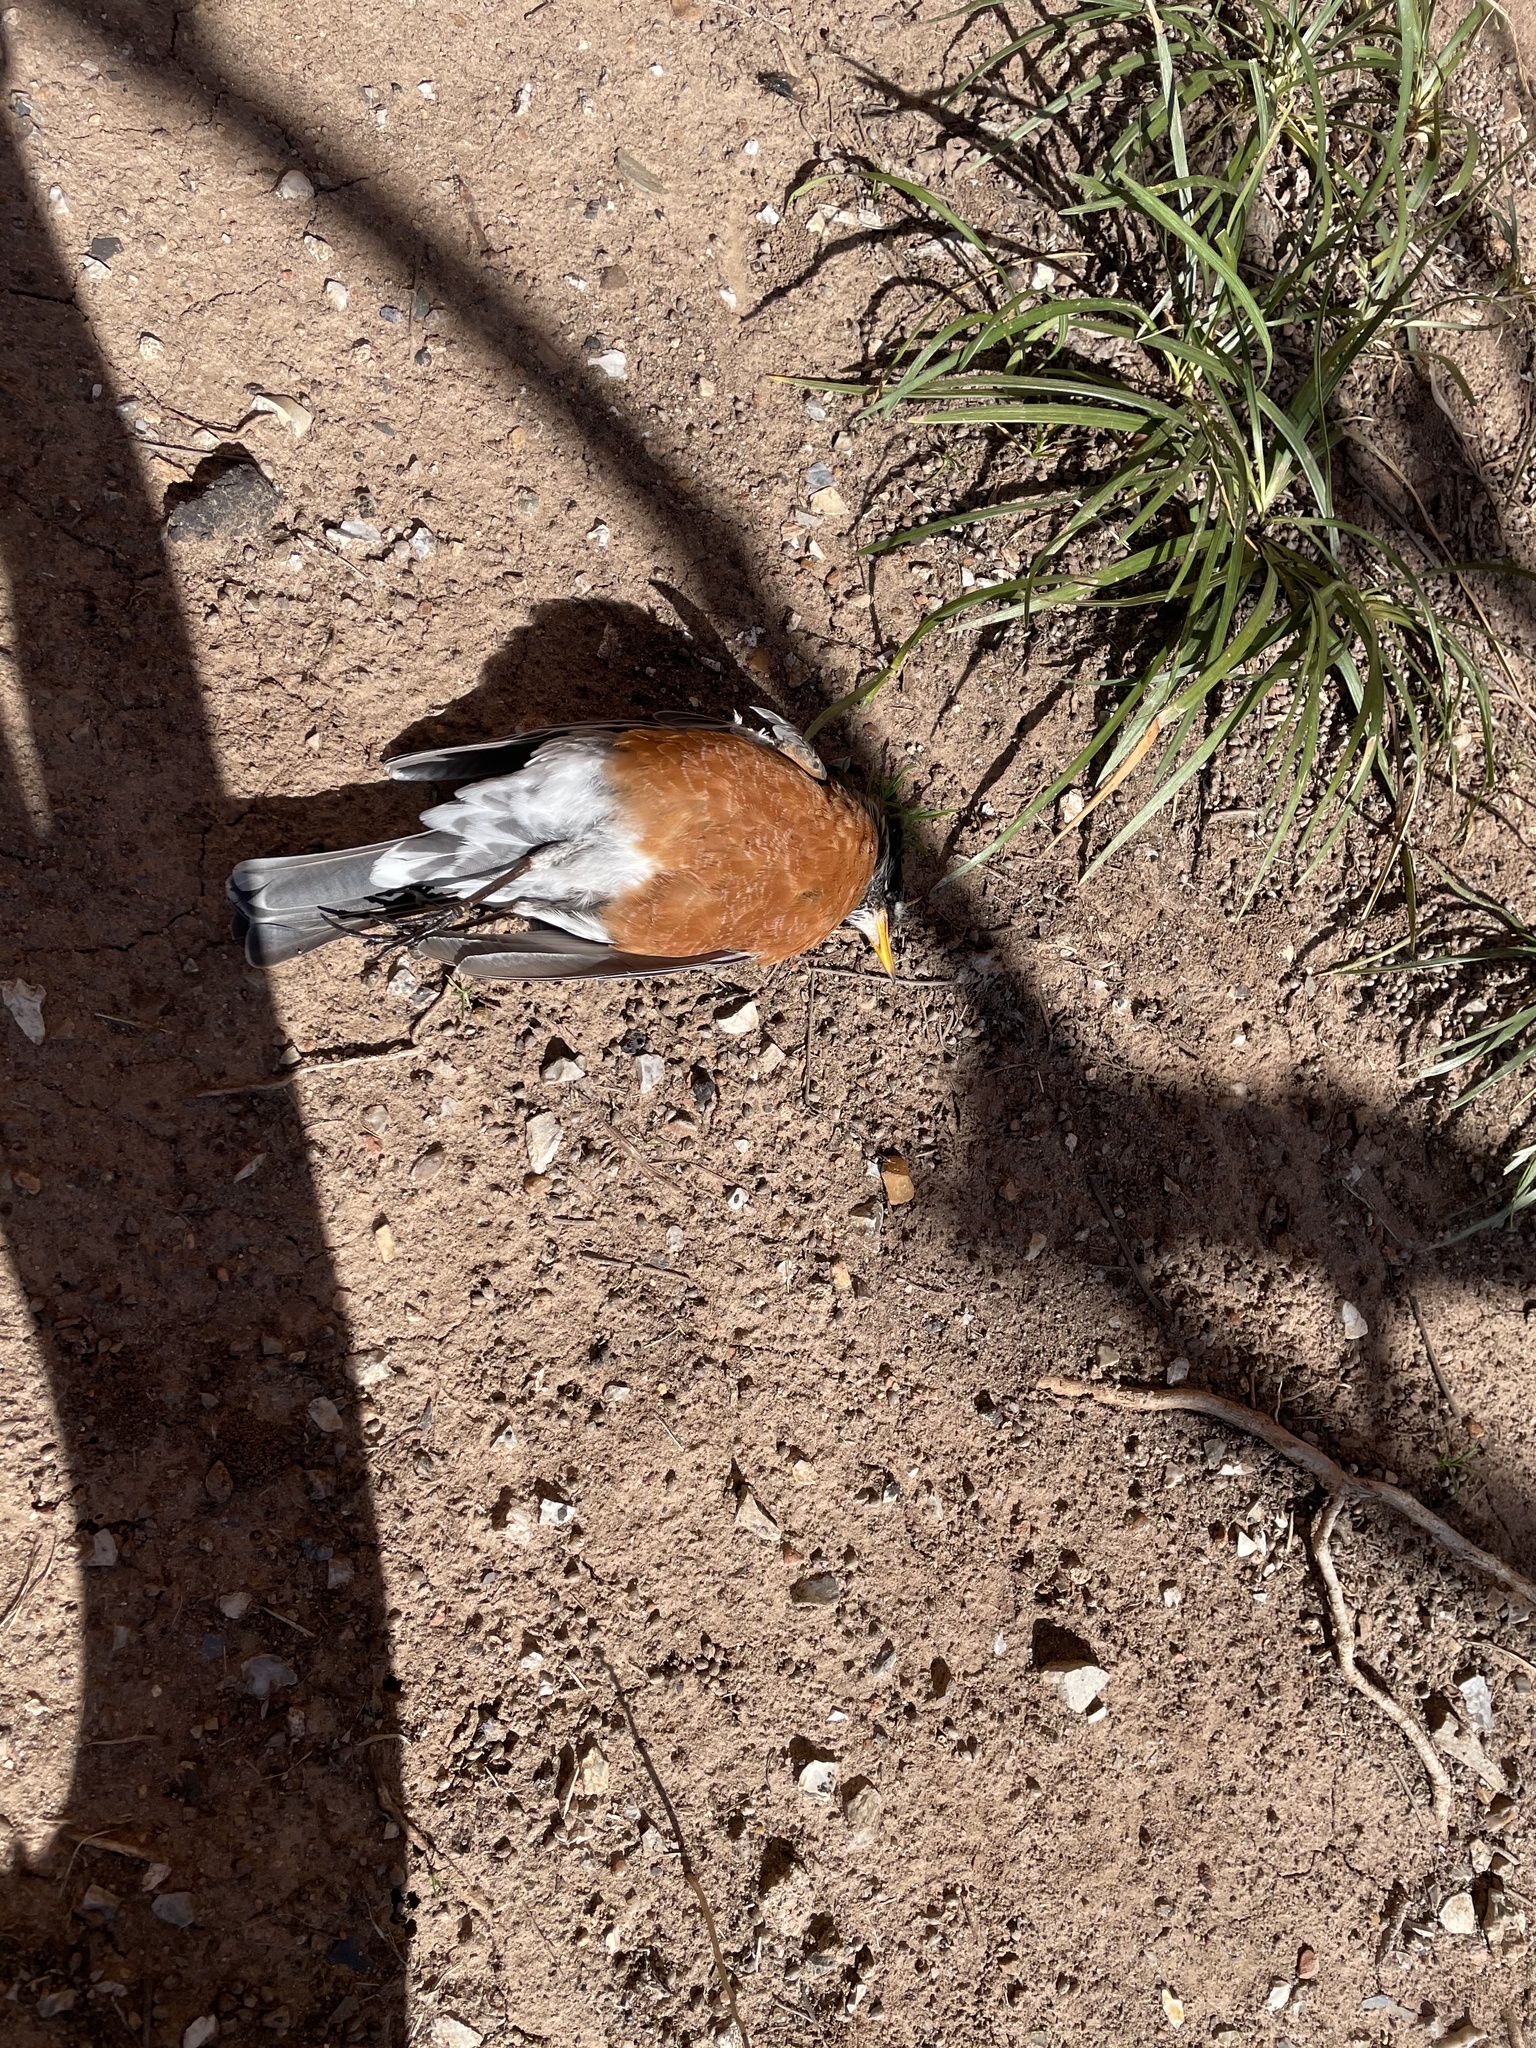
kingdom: Animalia
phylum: Chordata
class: Aves
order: Passeriformes
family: Turdidae
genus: Turdus
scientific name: Turdus migratorius
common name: American robin
